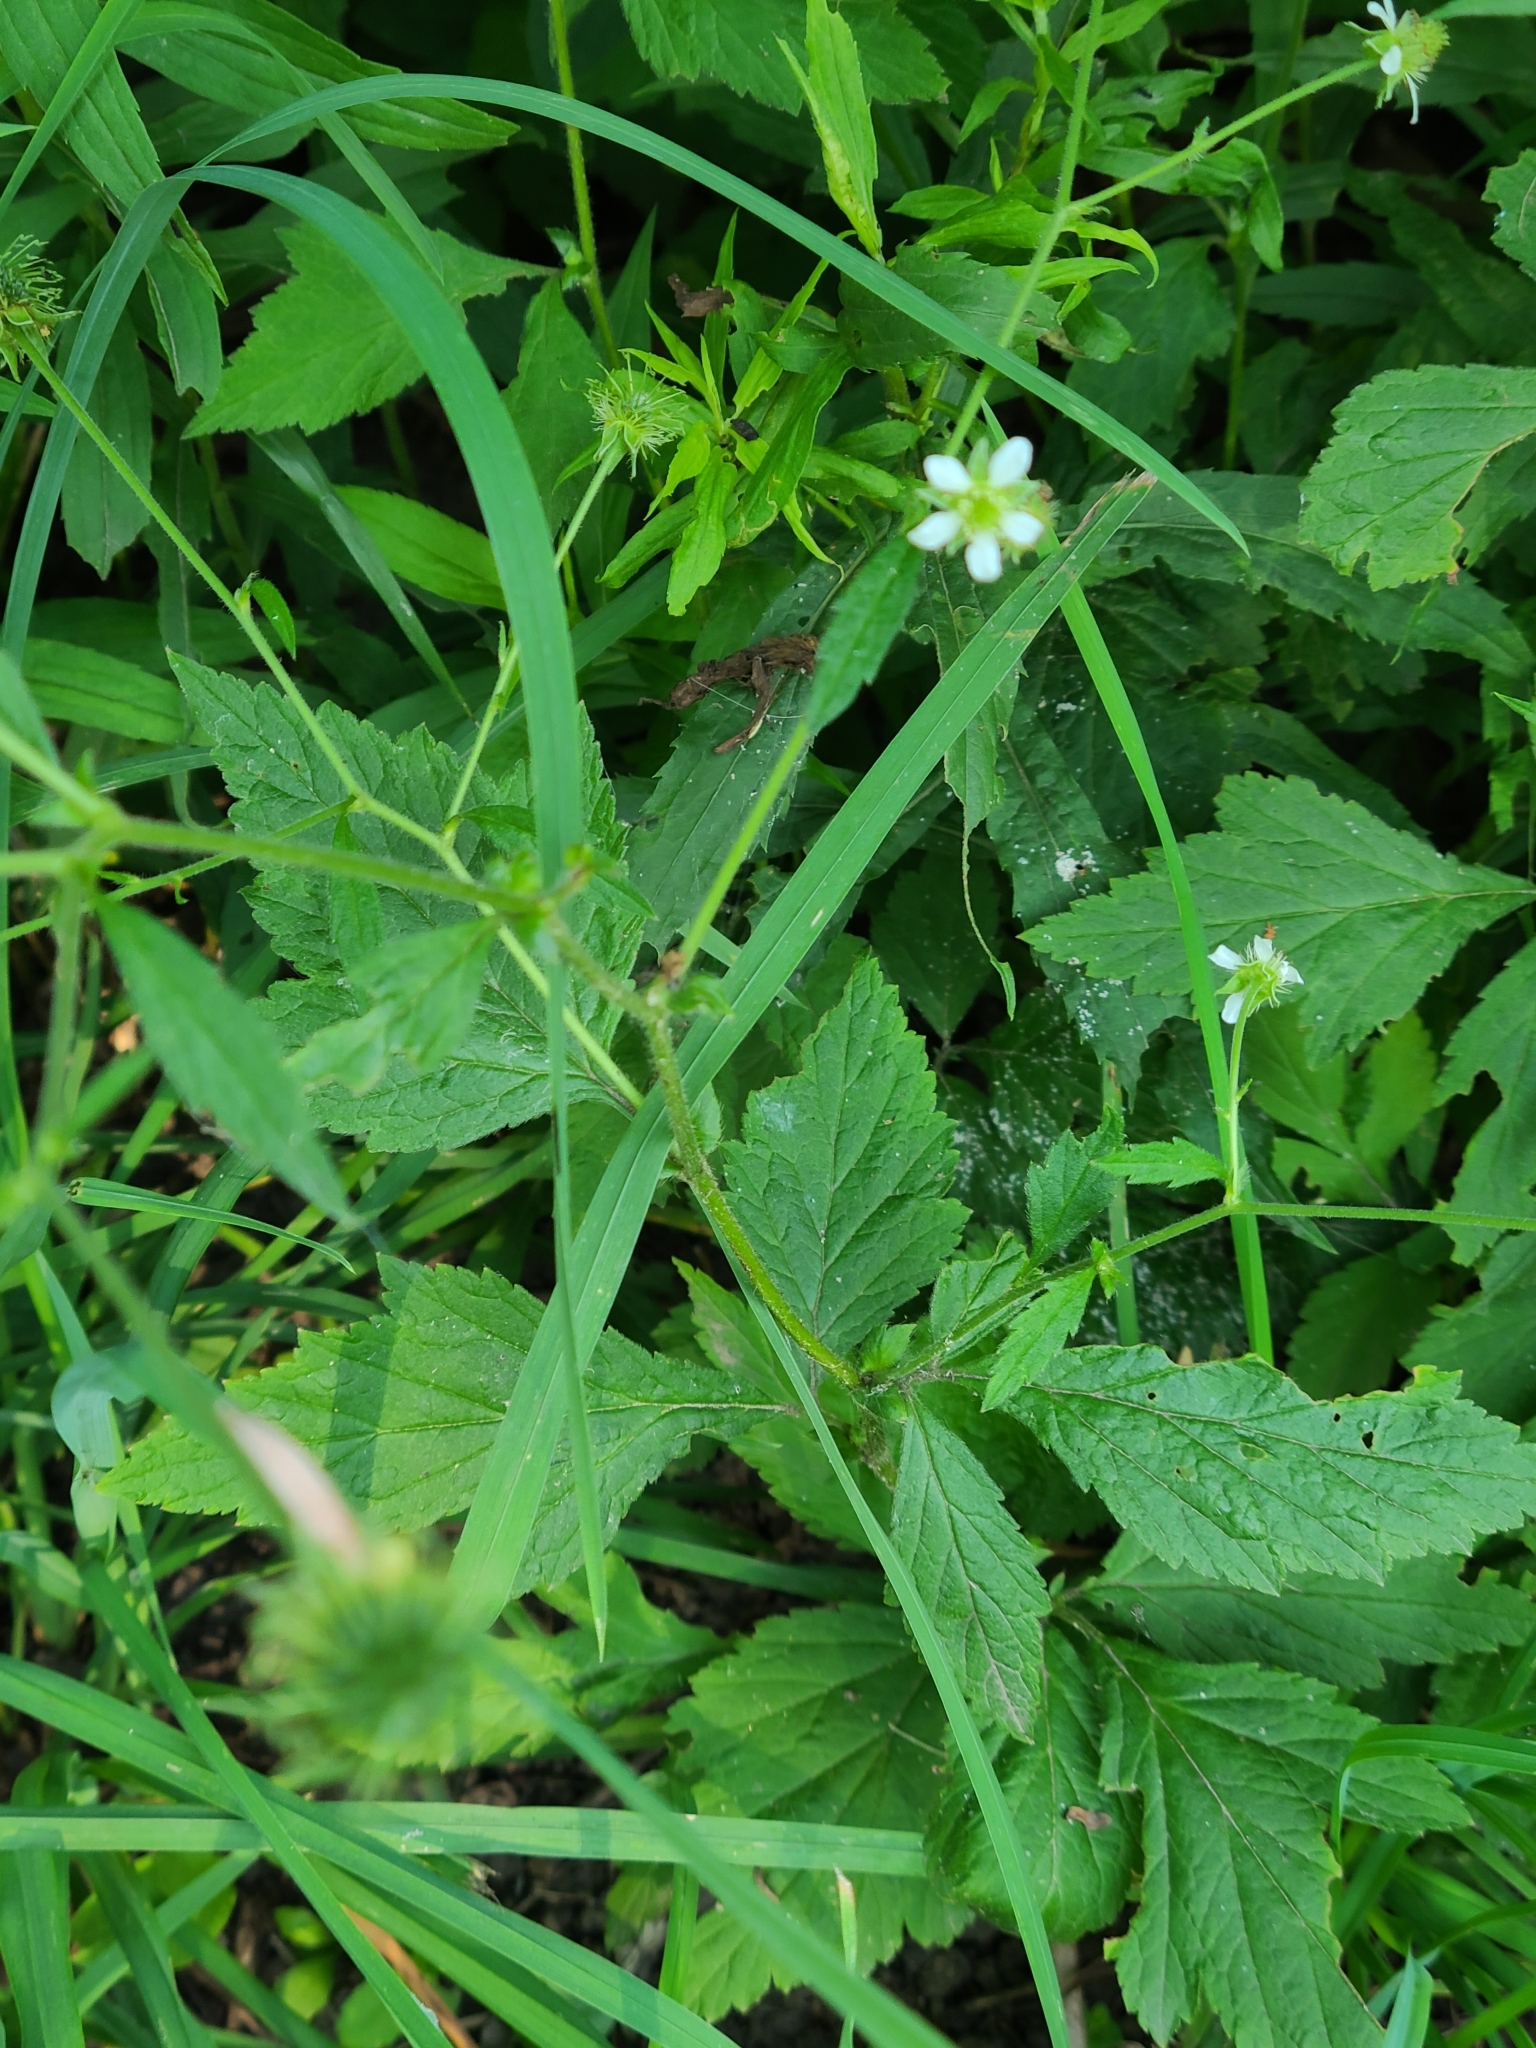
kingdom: Plantae
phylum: Tracheophyta
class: Magnoliopsida
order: Rosales
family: Rosaceae
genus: Geum
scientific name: Geum canadense
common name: White avens
